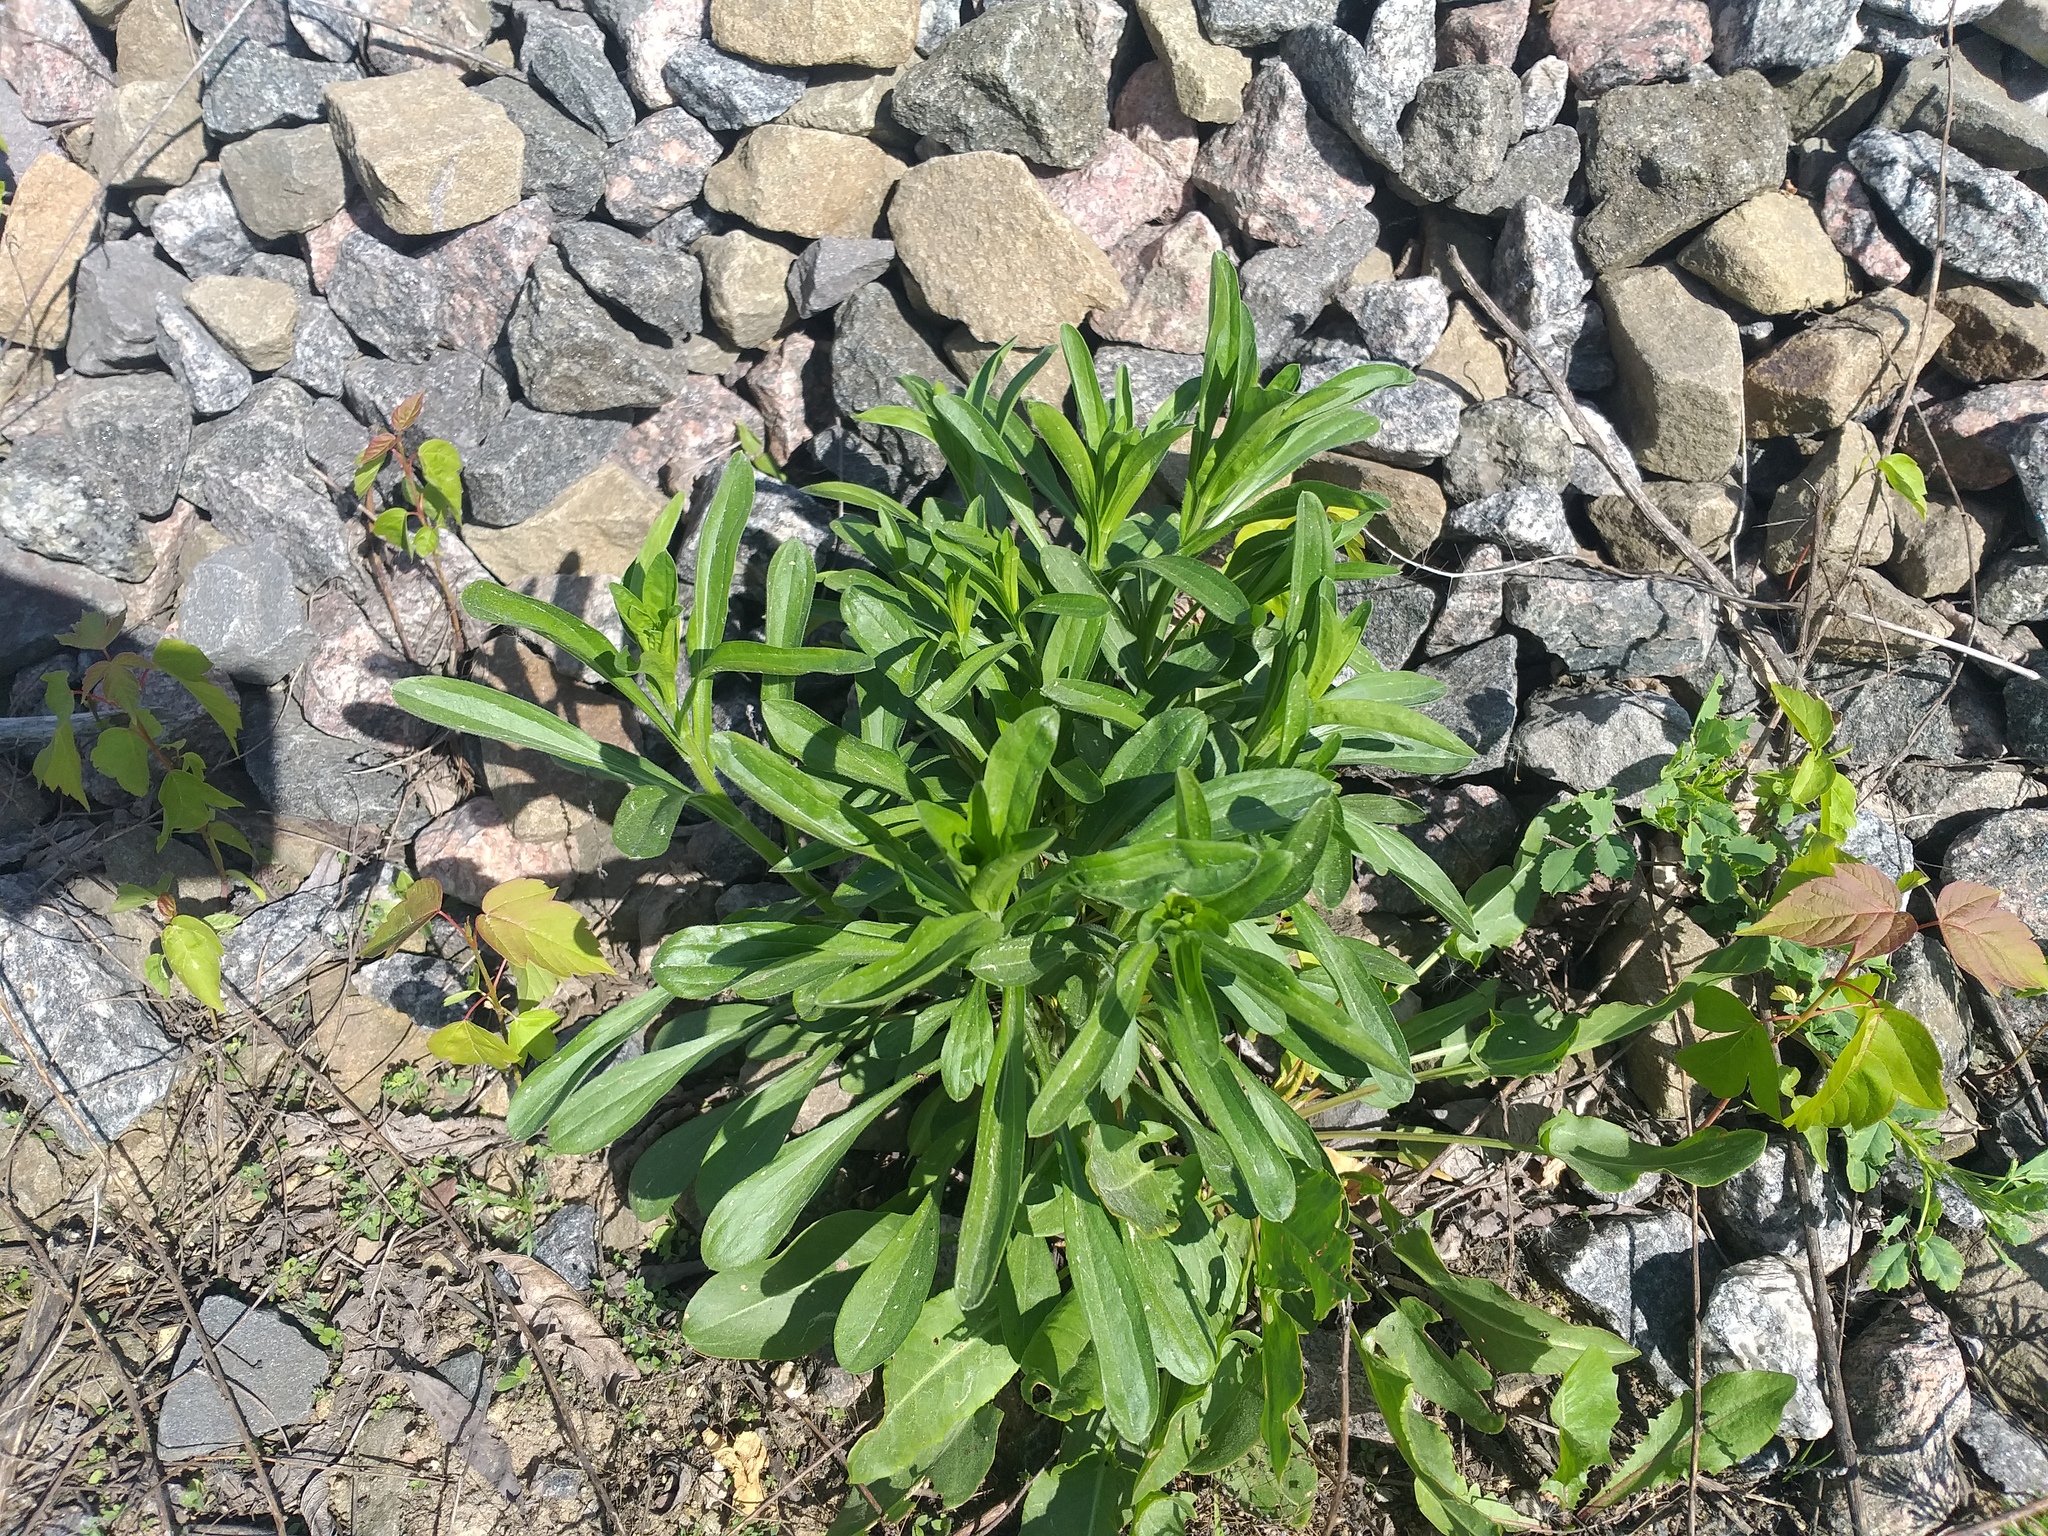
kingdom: Plantae
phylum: Tracheophyta
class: Magnoliopsida
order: Asterales
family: Asteraceae
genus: Erigeron
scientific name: Erigeron droebachiensis
